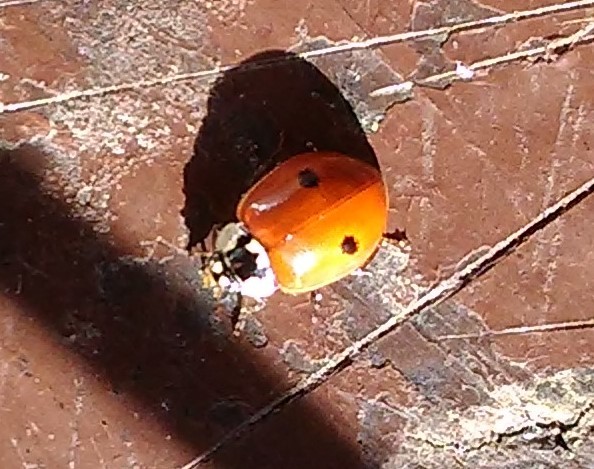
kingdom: Animalia
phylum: Arthropoda
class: Insecta
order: Coleoptera
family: Coccinellidae
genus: Adalia
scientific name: Adalia bipunctata
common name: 2-spot ladybird
